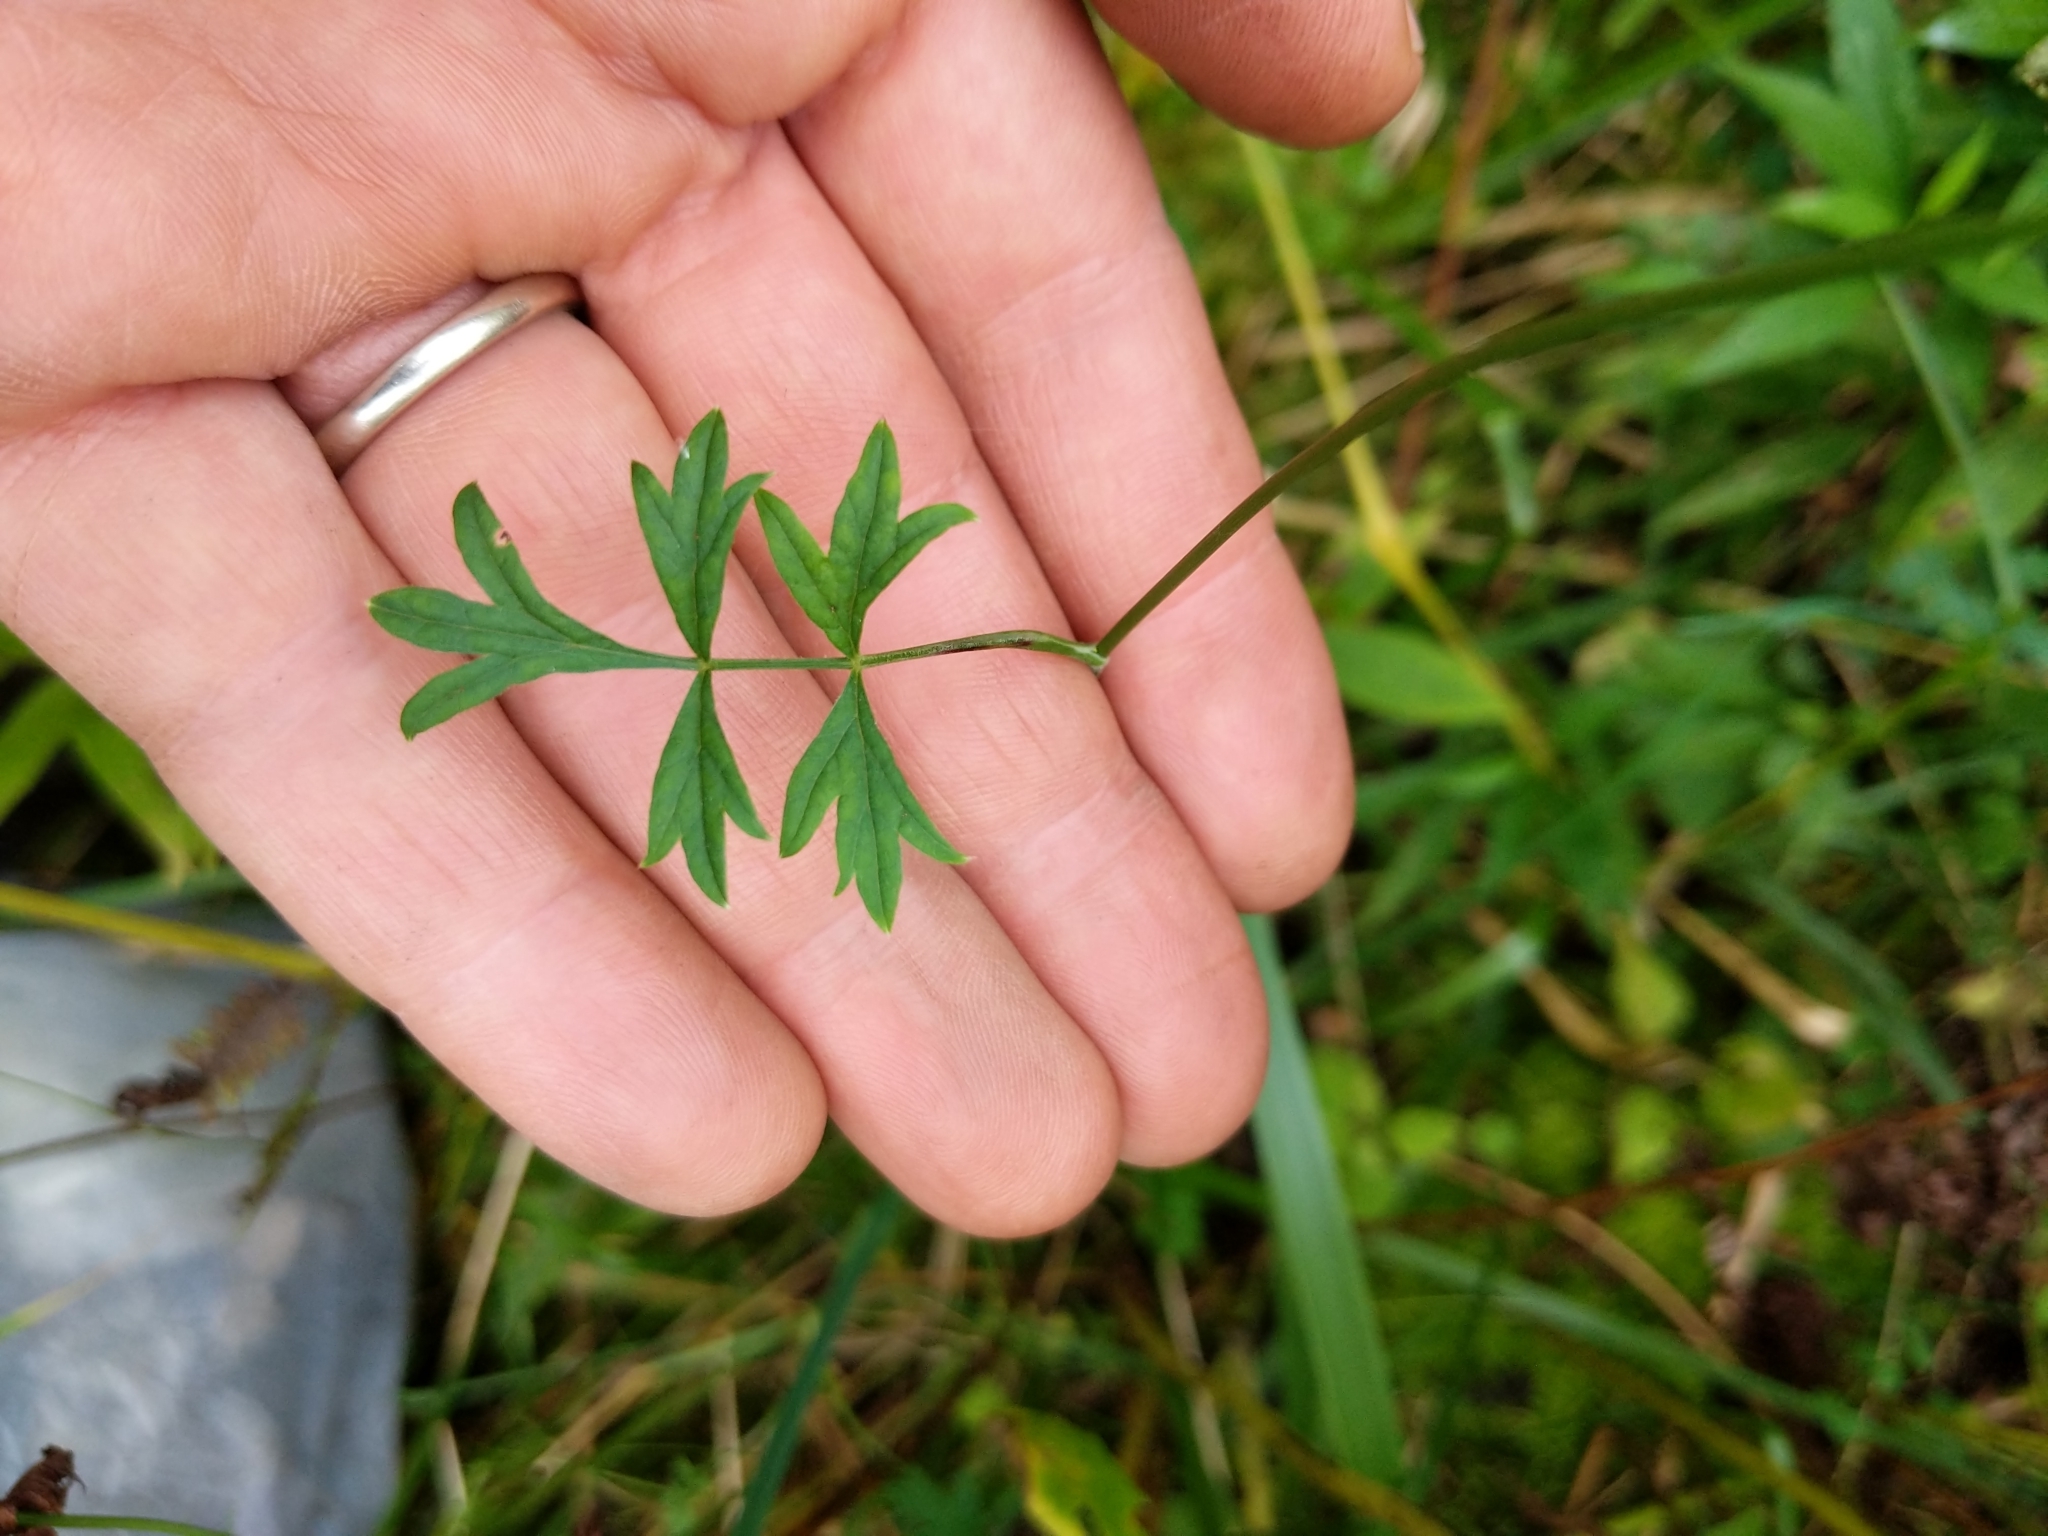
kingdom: Plantae
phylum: Tracheophyta
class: Magnoliopsida
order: Apiales
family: Apiaceae
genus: Pimpinella
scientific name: Pimpinella saxifraga
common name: Burnet-saxifrage
